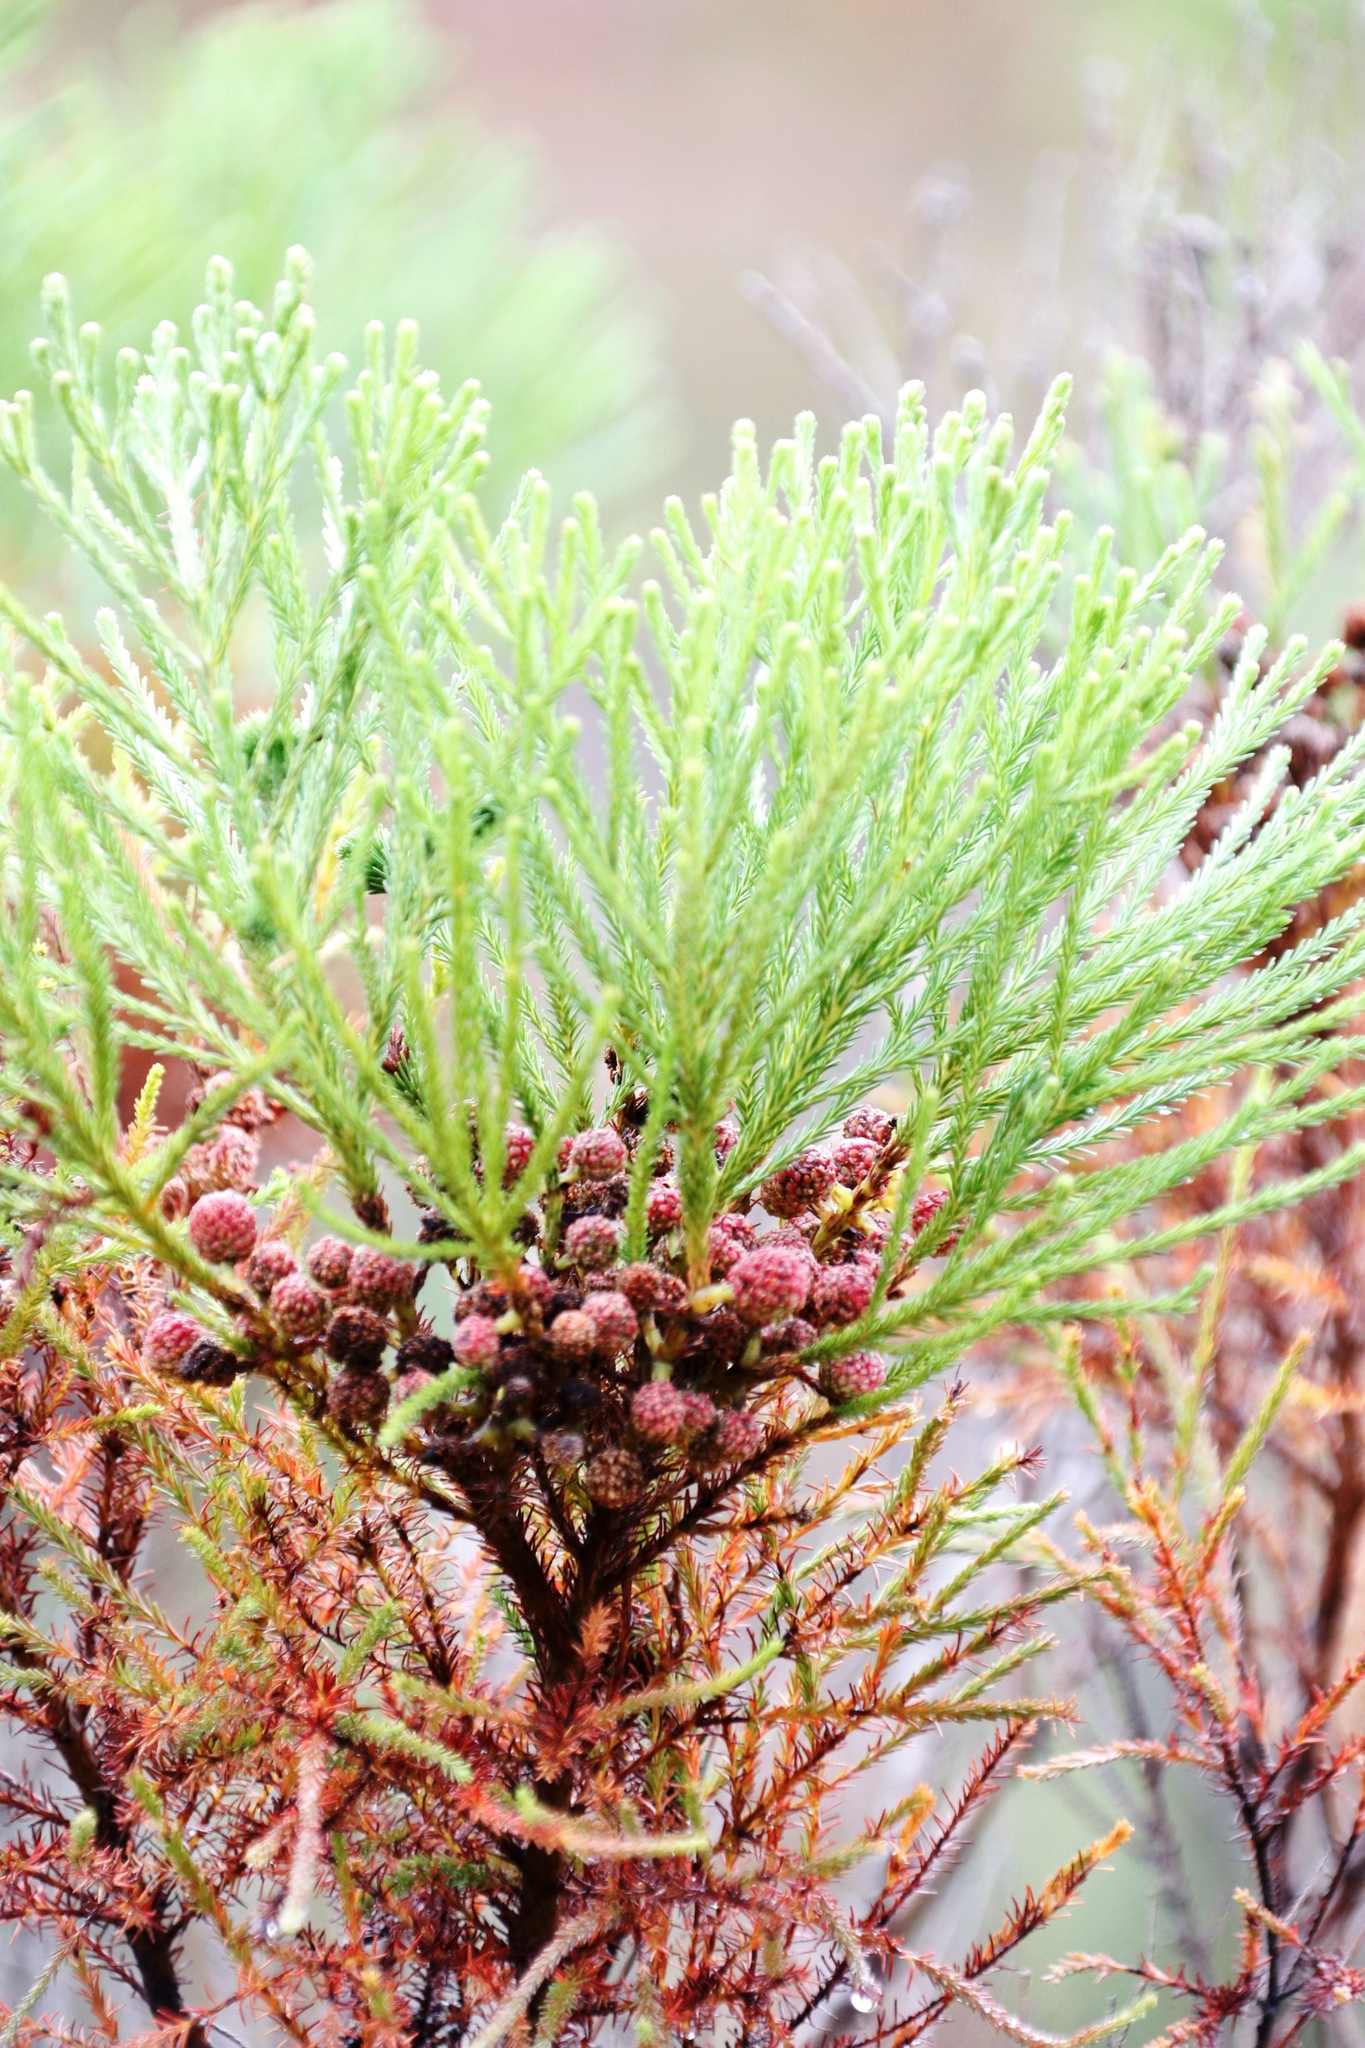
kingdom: Plantae
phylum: Tracheophyta
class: Magnoliopsida
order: Bruniales
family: Bruniaceae
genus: Berzelia
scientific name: Berzelia lanuginosa
